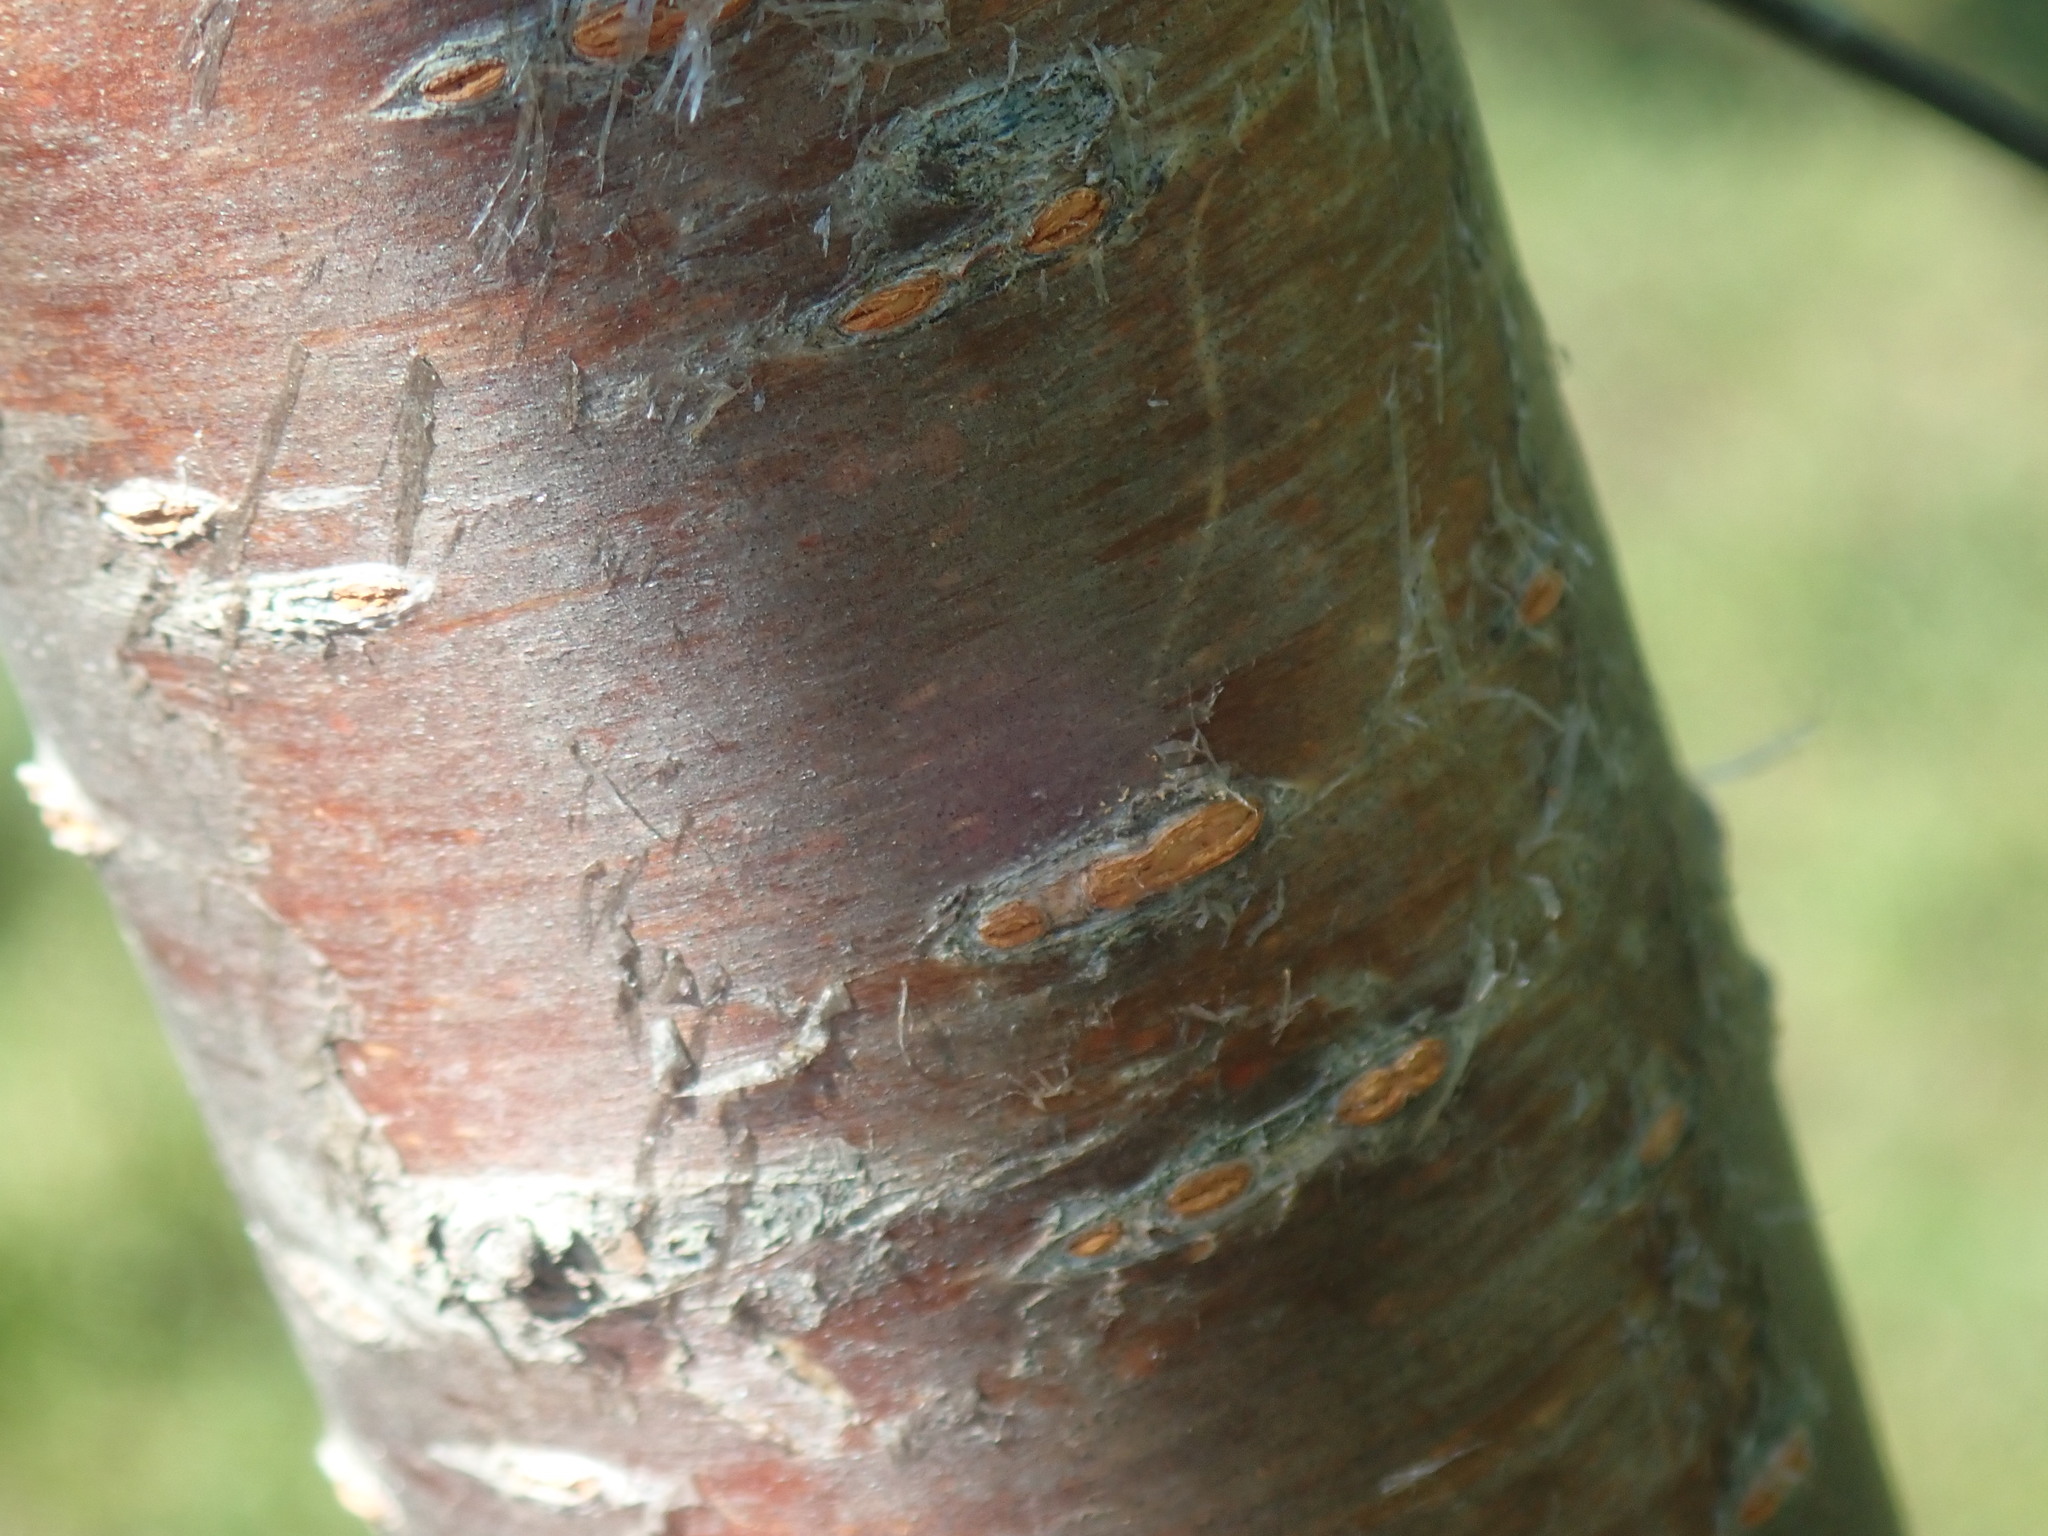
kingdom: Plantae
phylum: Tracheophyta
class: Magnoliopsida
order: Rosales
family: Rosaceae
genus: Prunus
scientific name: Prunus pensylvanica
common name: Pin cherry
